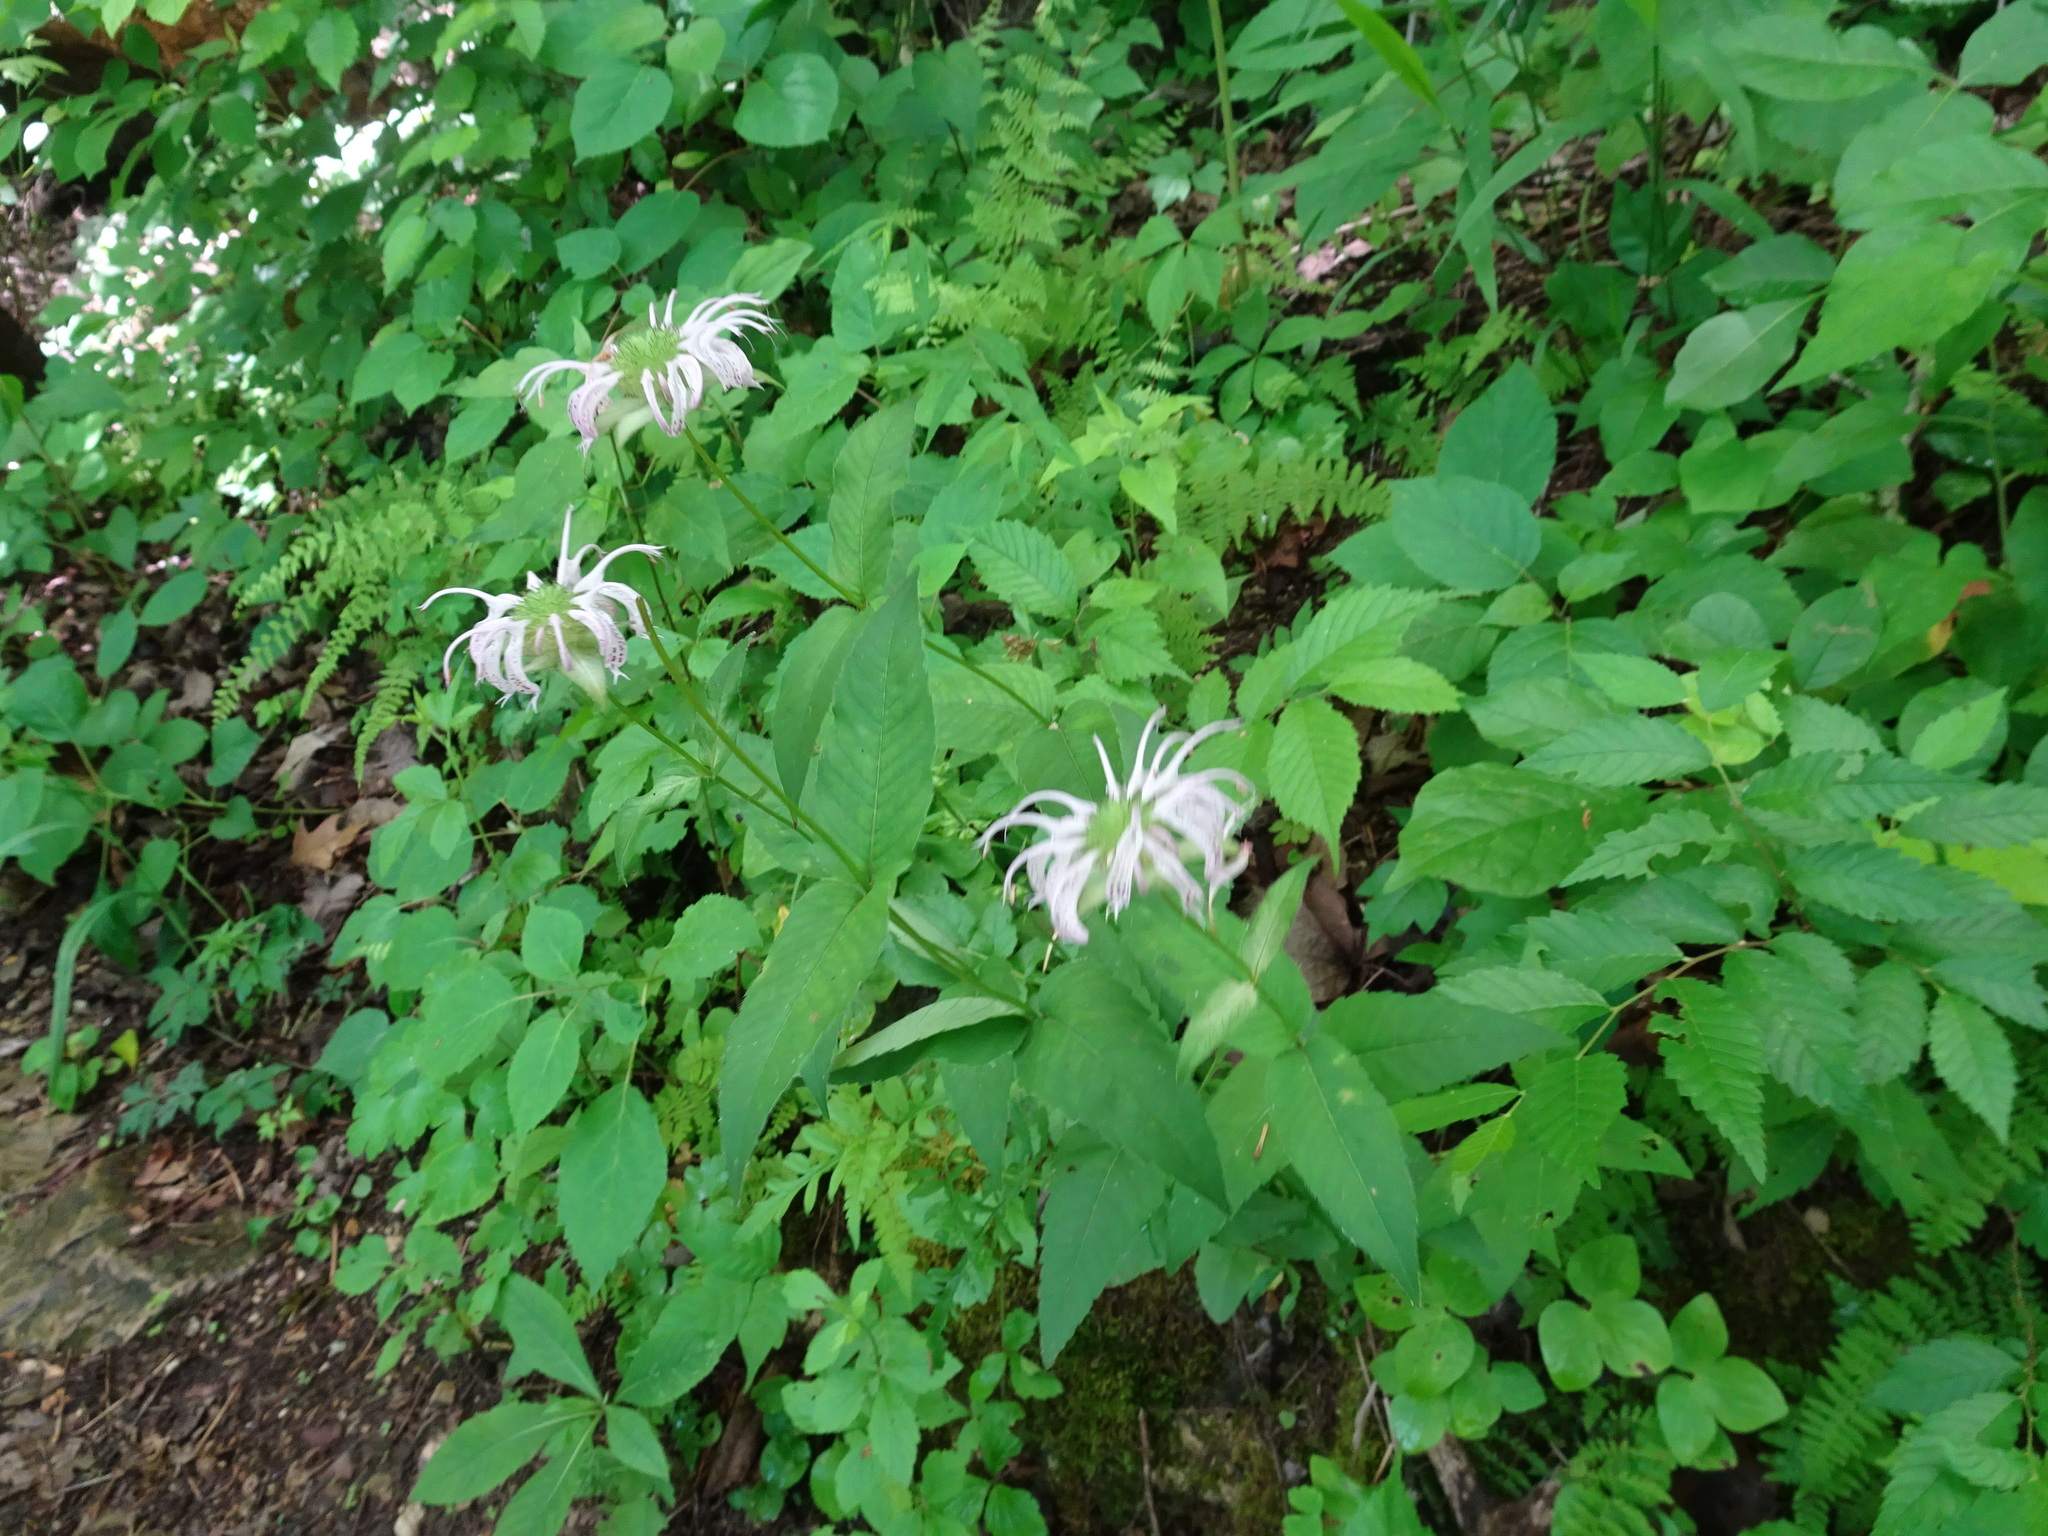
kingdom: Plantae
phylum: Tracheophyta
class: Magnoliopsida
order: Lamiales
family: Lamiaceae
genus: Monarda
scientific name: Monarda bradburiana
